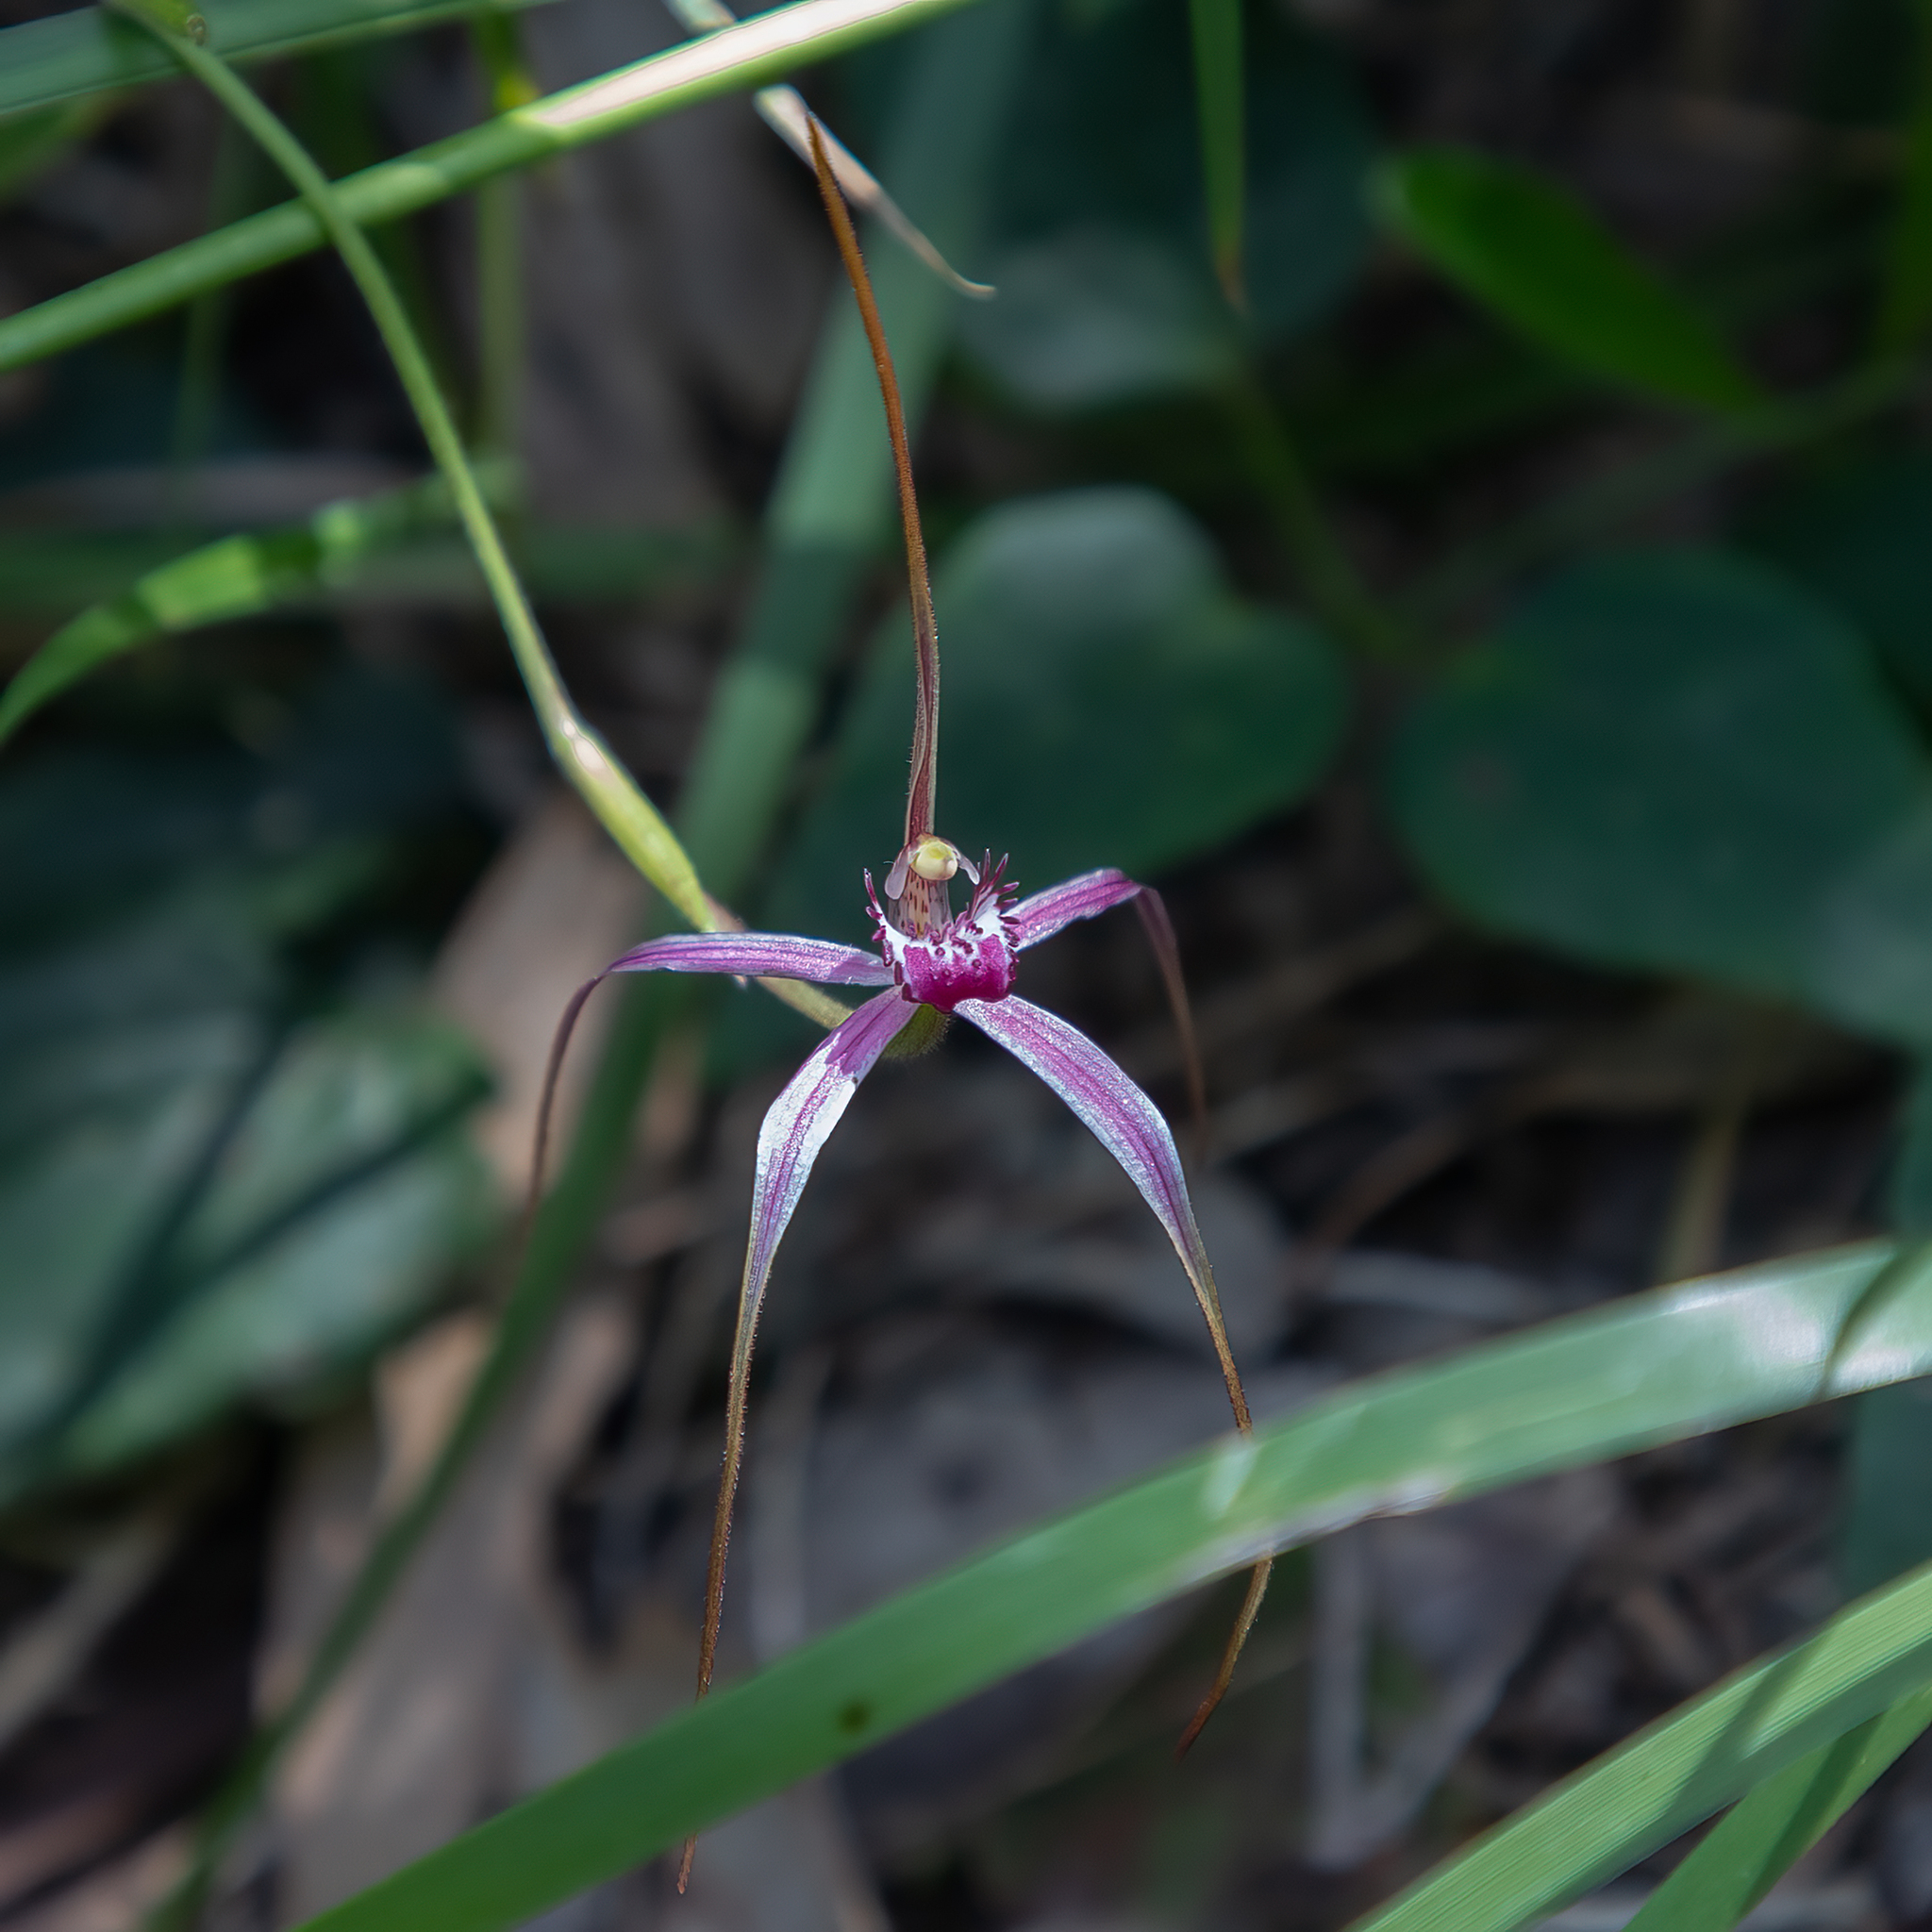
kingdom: Plantae
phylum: Tracheophyta
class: Liliopsida
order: Asparagales
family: Orchidaceae
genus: Caladenia
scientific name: Caladenia harringtoniae
